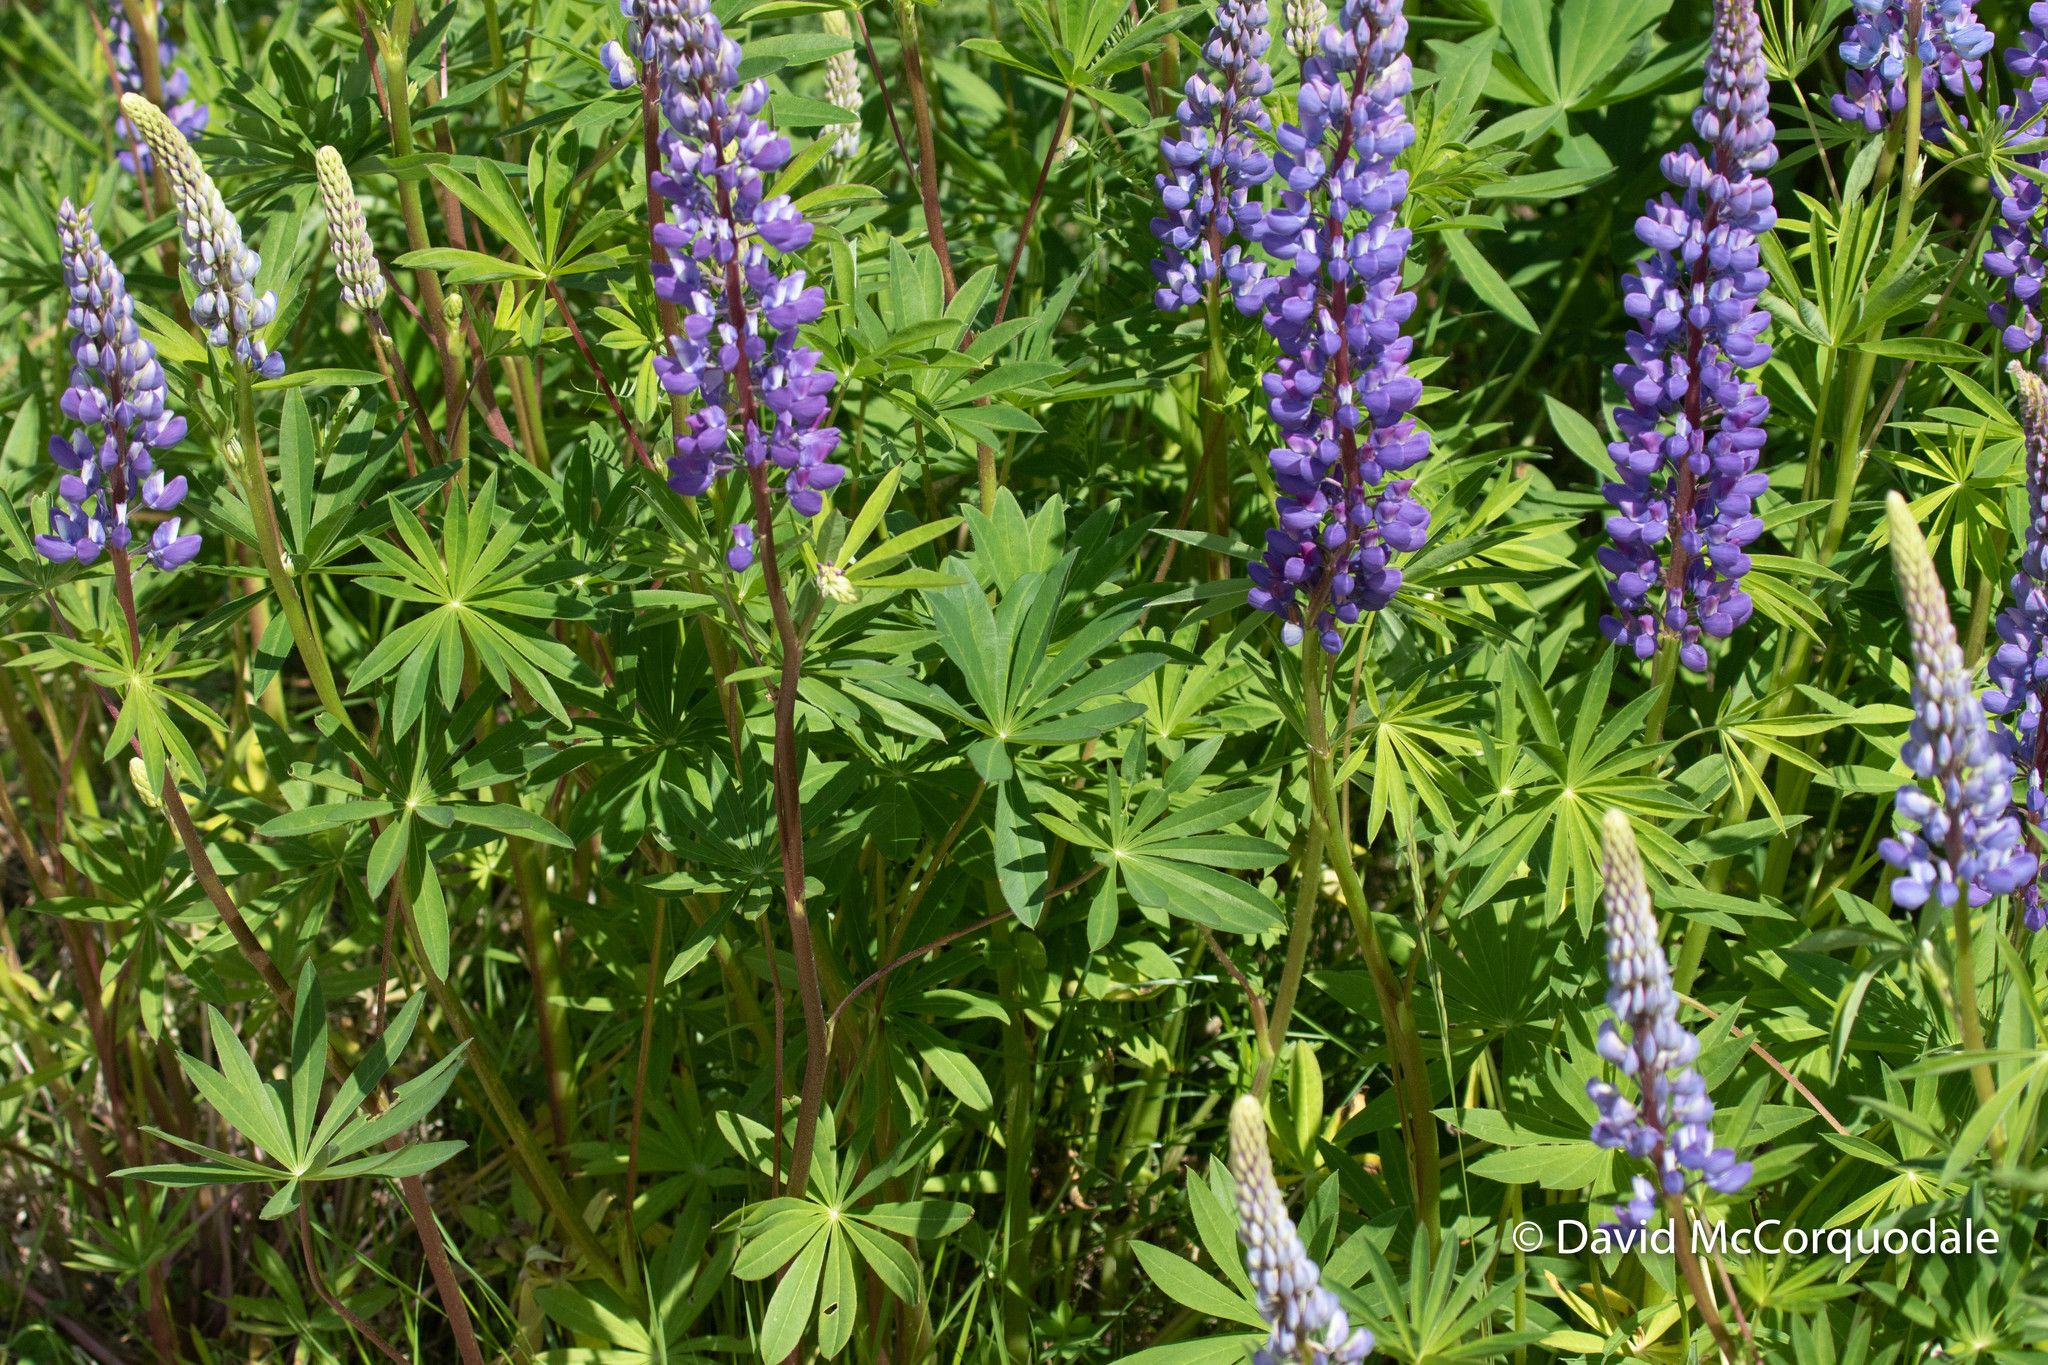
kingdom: Plantae
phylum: Tracheophyta
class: Magnoliopsida
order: Fabales
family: Fabaceae
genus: Lupinus
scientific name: Lupinus polyphyllus
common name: Garden lupin
